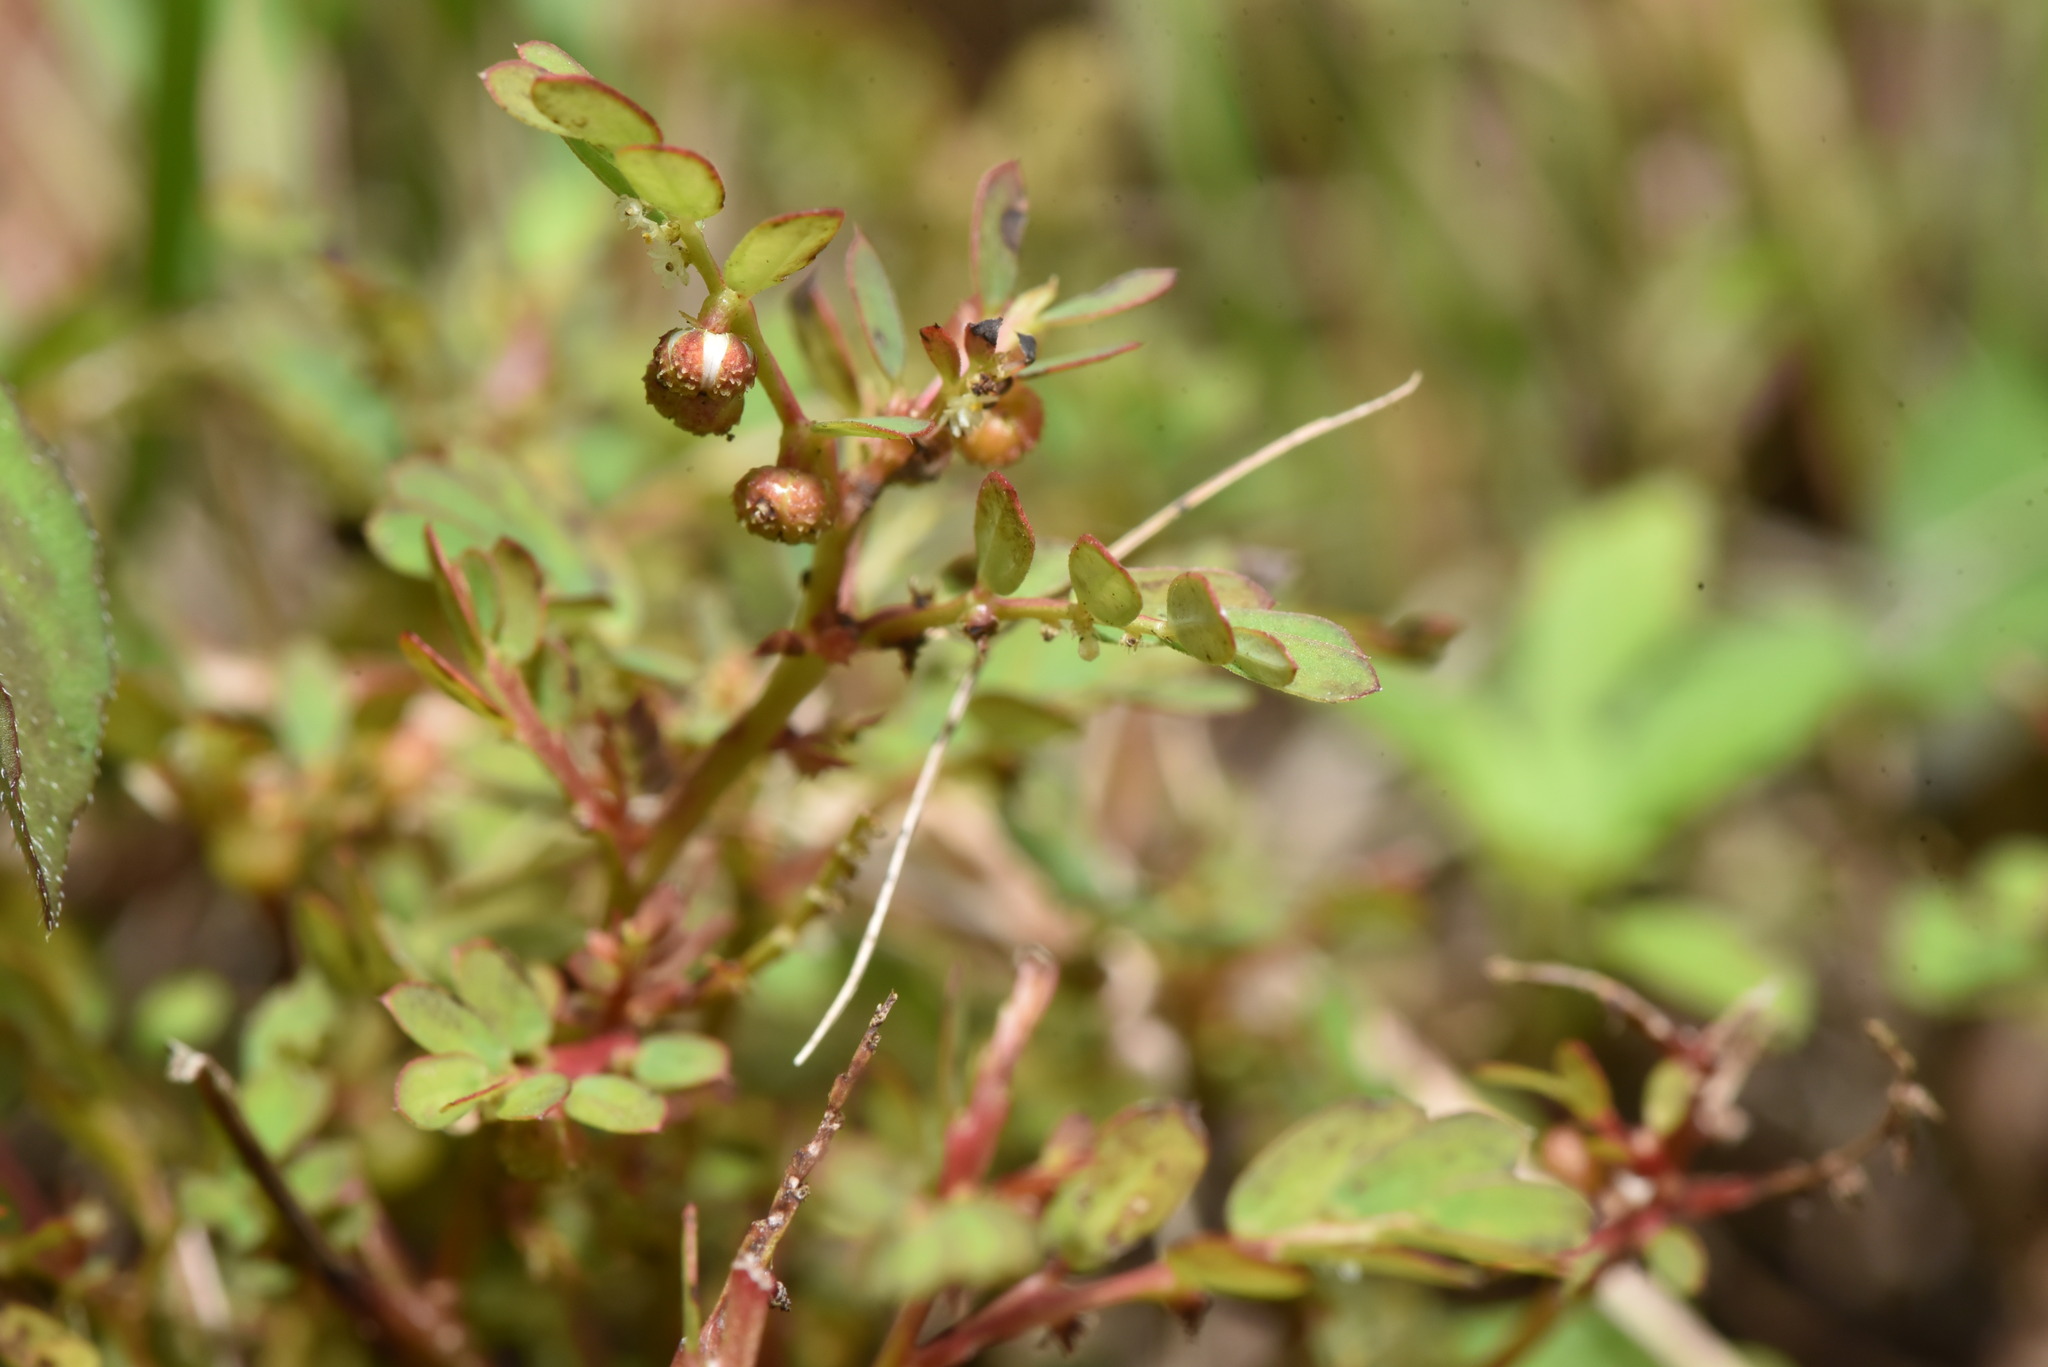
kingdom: Plantae
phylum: Tracheophyta
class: Magnoliopsida
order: Malpighiales
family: Phyllanthaceae
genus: Phyllanthus
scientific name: Phyllanthus urinaria
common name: Chamber bitter
